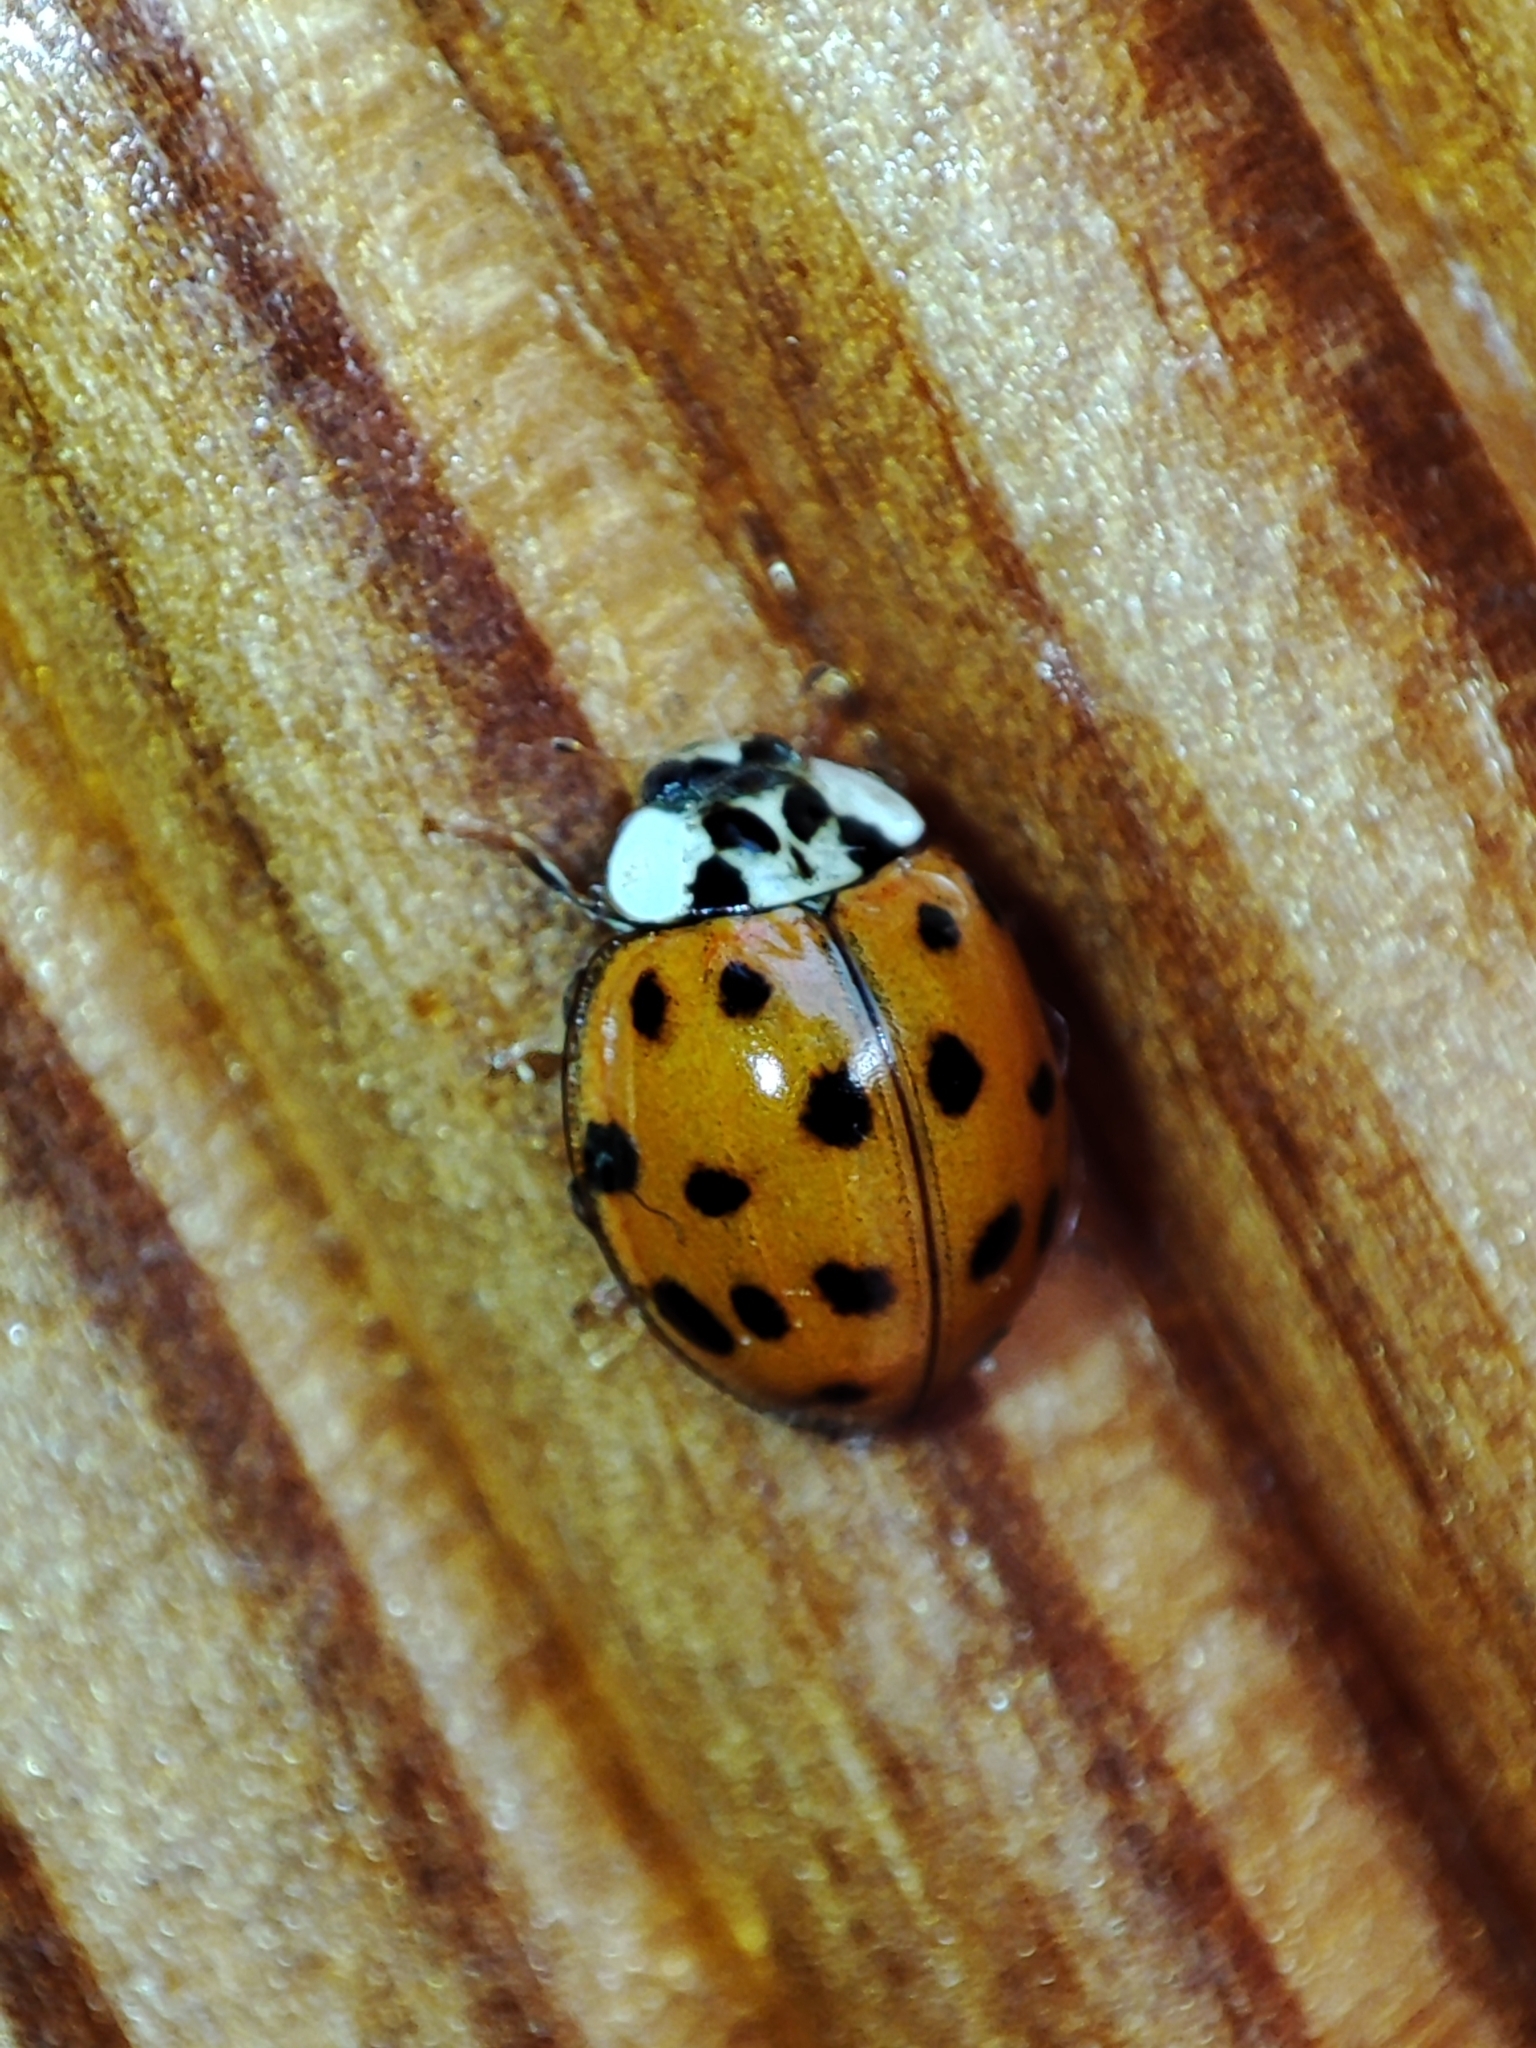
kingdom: Animalia
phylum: Arthropoda
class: Insecta
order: Coleoptera
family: Coccinellidae
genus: Harmonia
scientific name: Harmonia axyridis
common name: Harlequin ladybird
